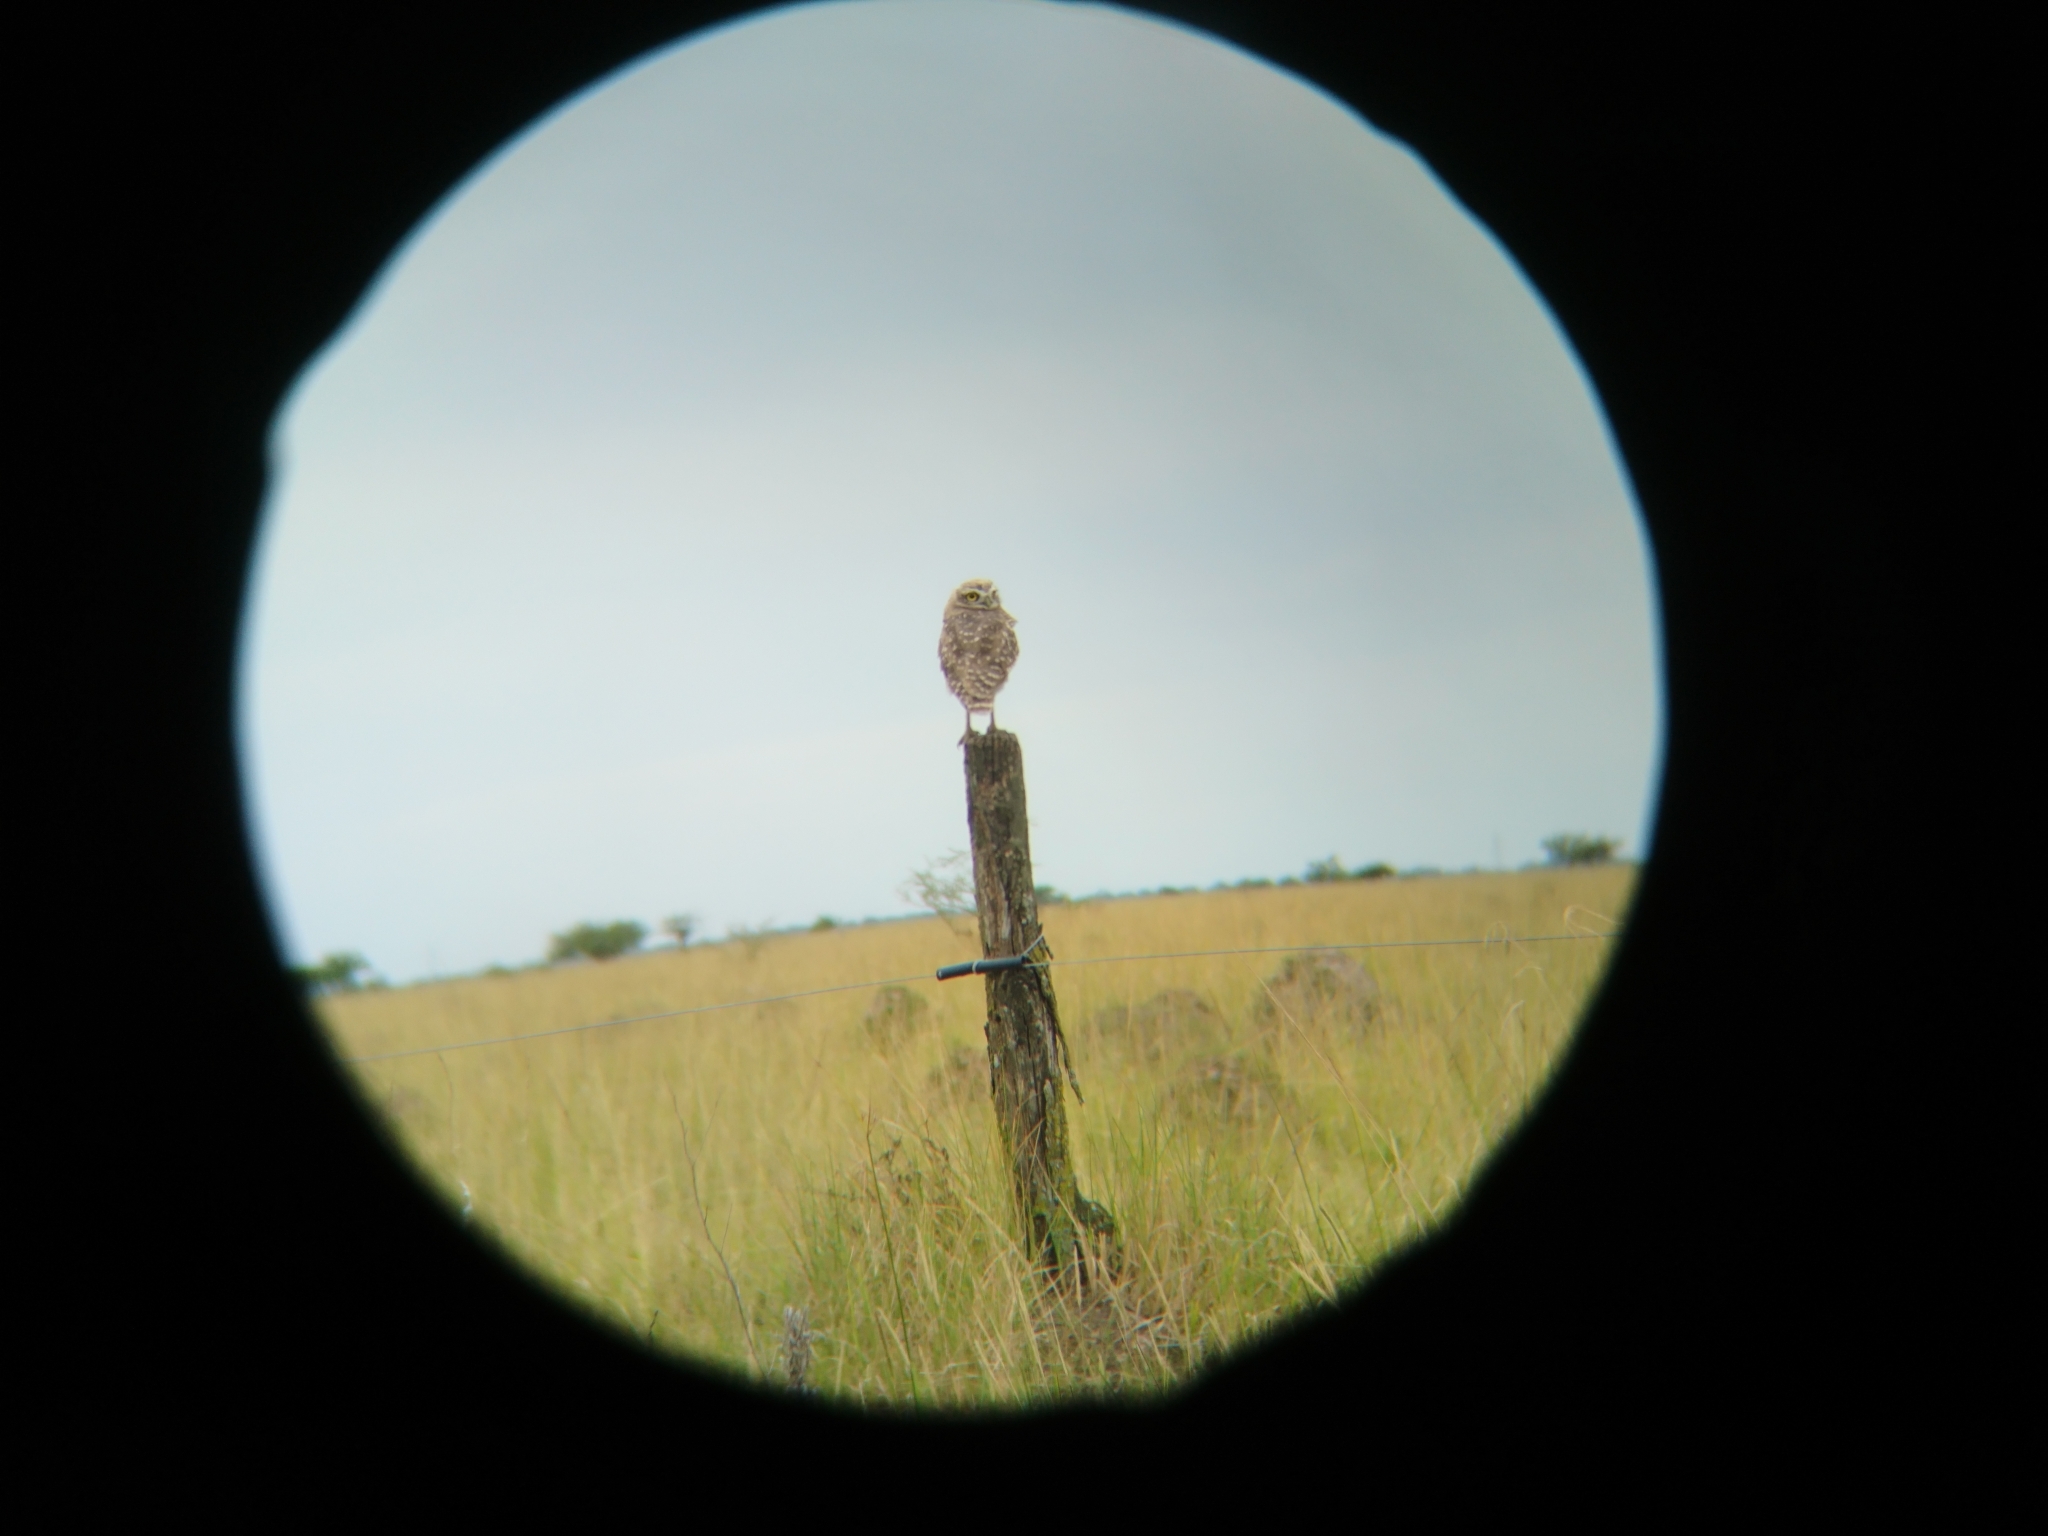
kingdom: Animalia
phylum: Chordata
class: Aves
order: Strigiformes
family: Strigidae
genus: Athene
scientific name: Athene cunicularia
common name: Burrowing owl
